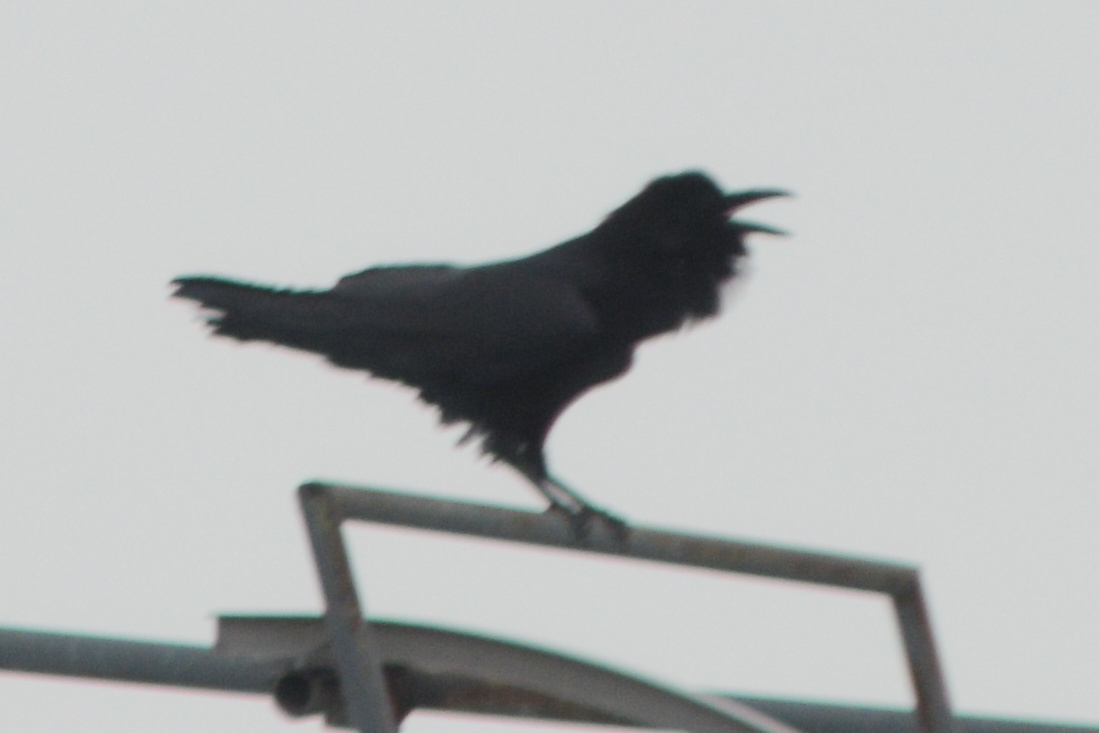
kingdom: Animalia
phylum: Chordata
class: Aves
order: Passeriformes
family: Corvidae
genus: Corvus
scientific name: Corvus corax
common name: Common raven
